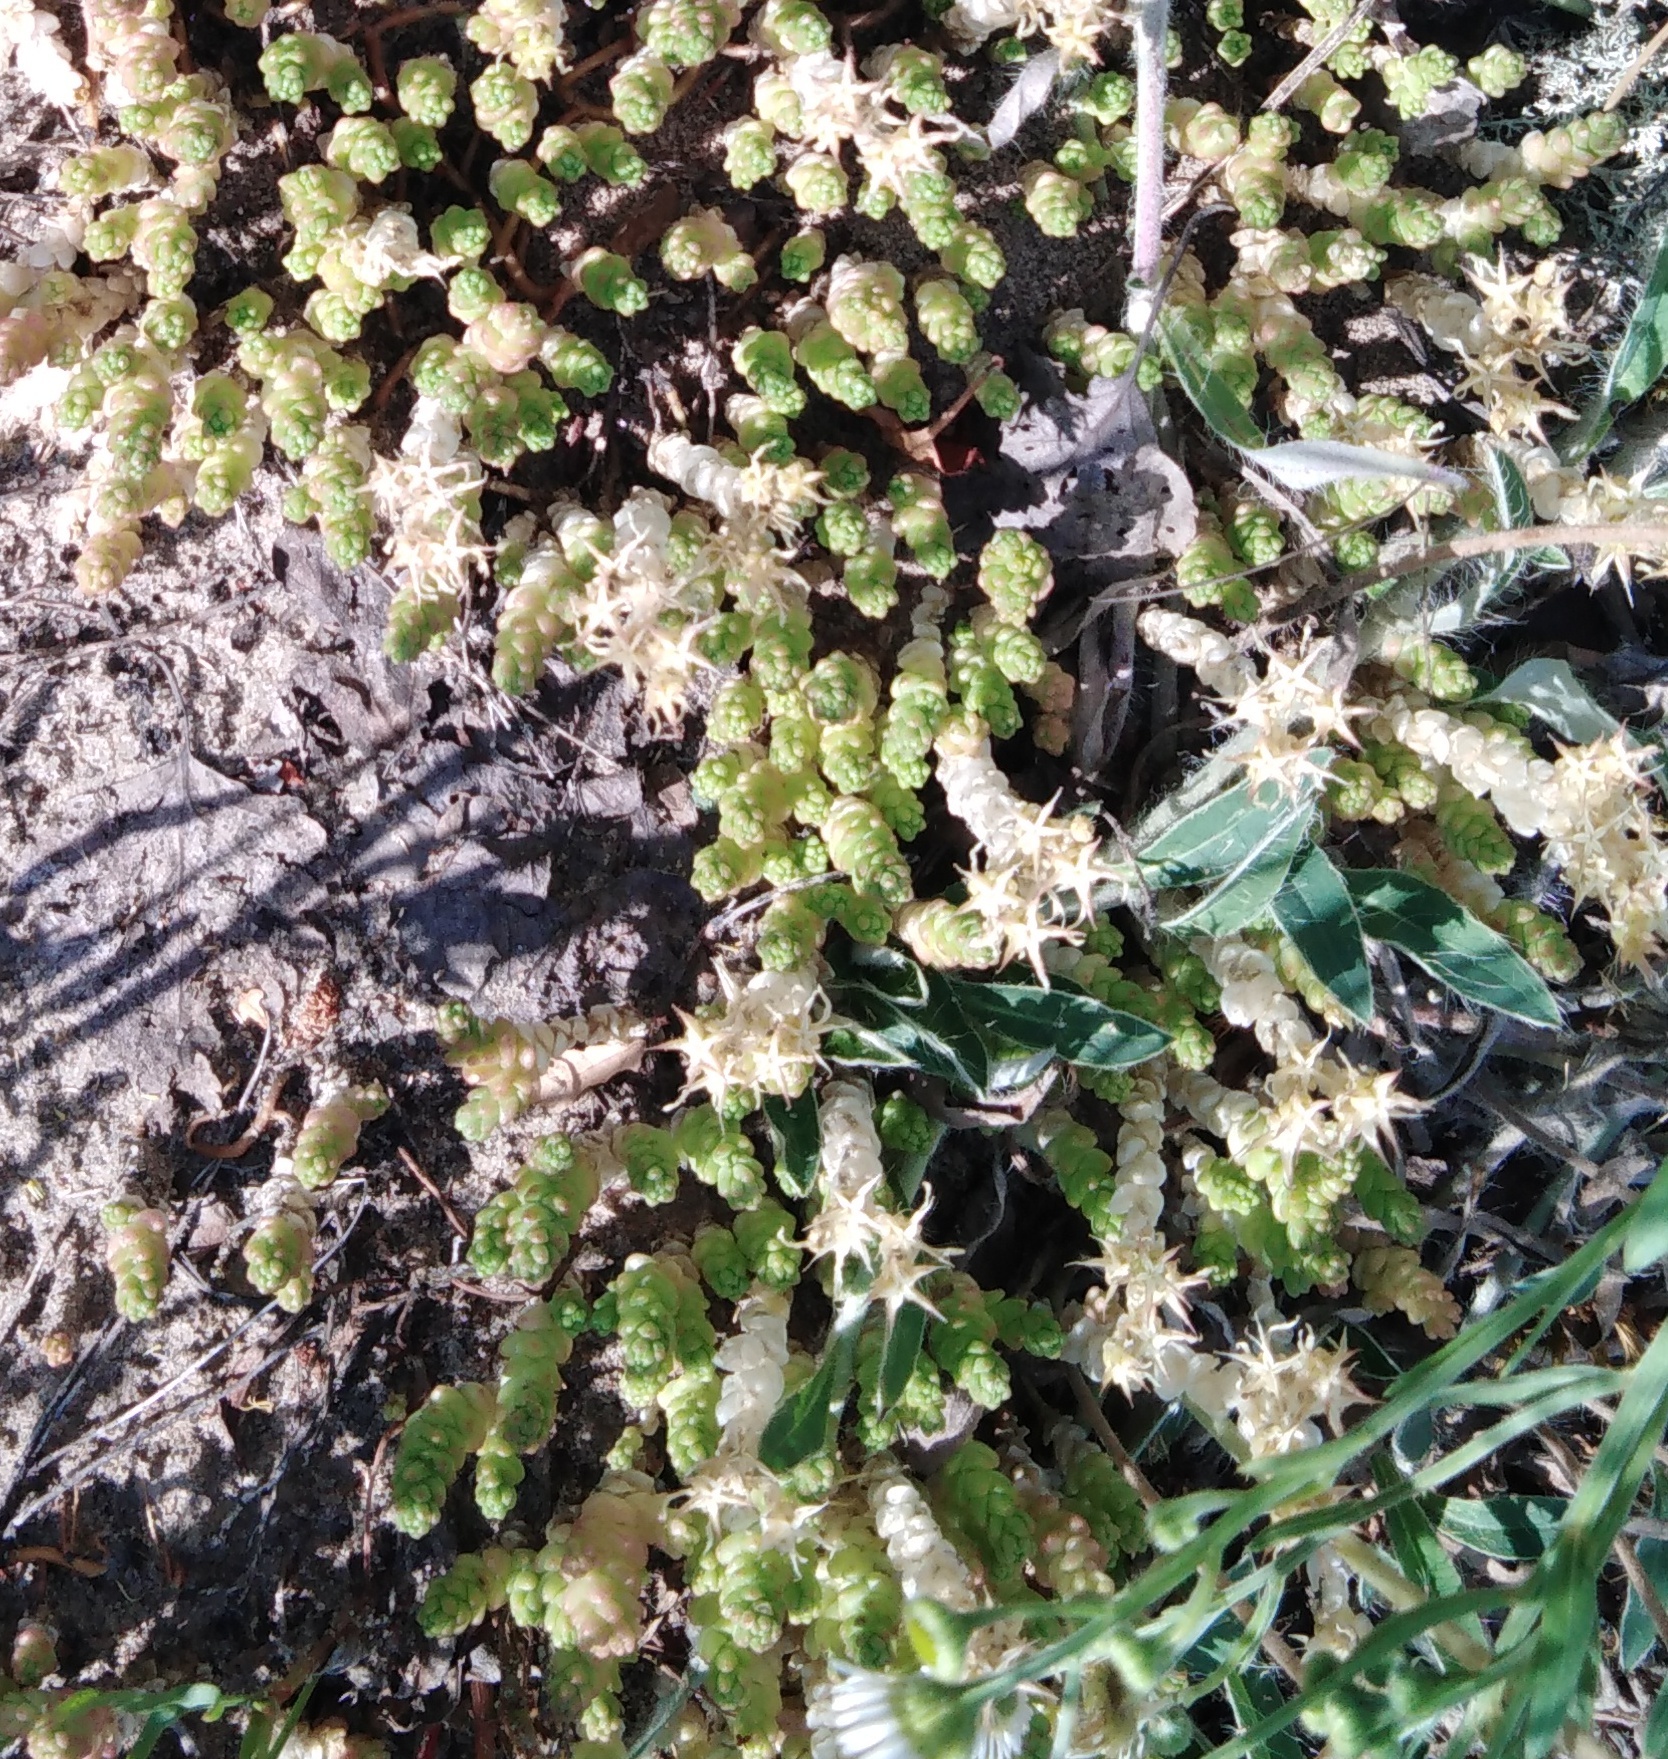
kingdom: Plantae
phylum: Tracheophyta
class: Magnoliopsida
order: Saxifragales
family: Crassulaceae
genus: Sedum
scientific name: Sedum acre
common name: Biting stonecrop
